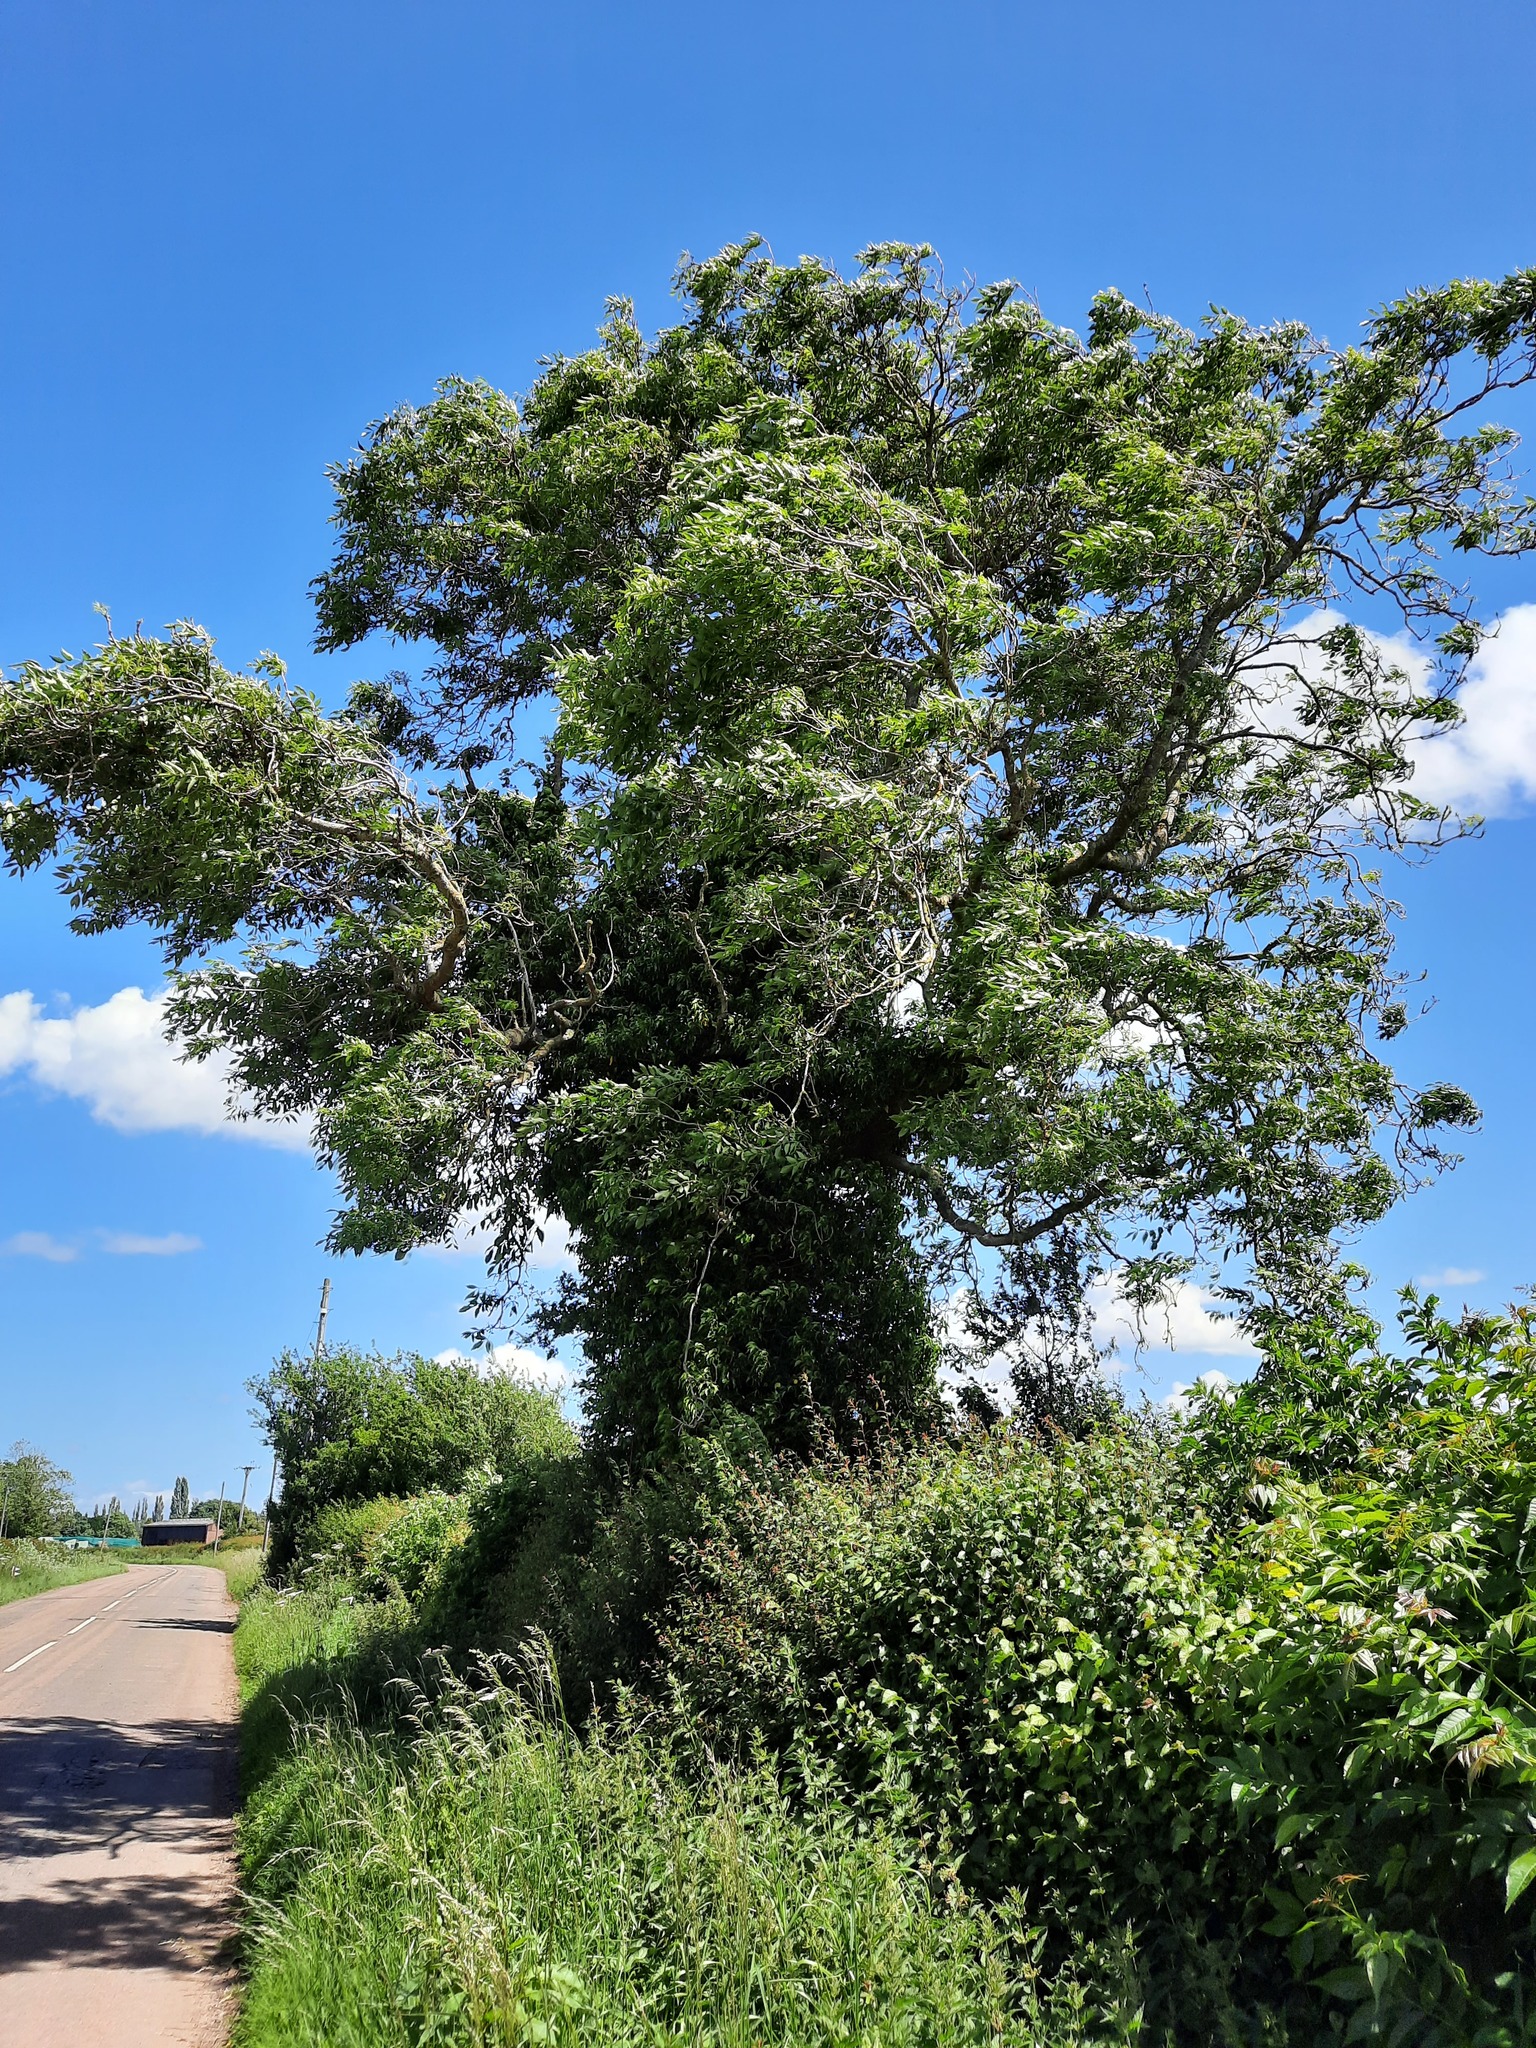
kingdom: Plantae
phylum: Tracheophyta
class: Magnoliopsida
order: Lamiales
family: Oleaceae
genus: Fraxinus
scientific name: Fraxinus excelsior
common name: European ash
